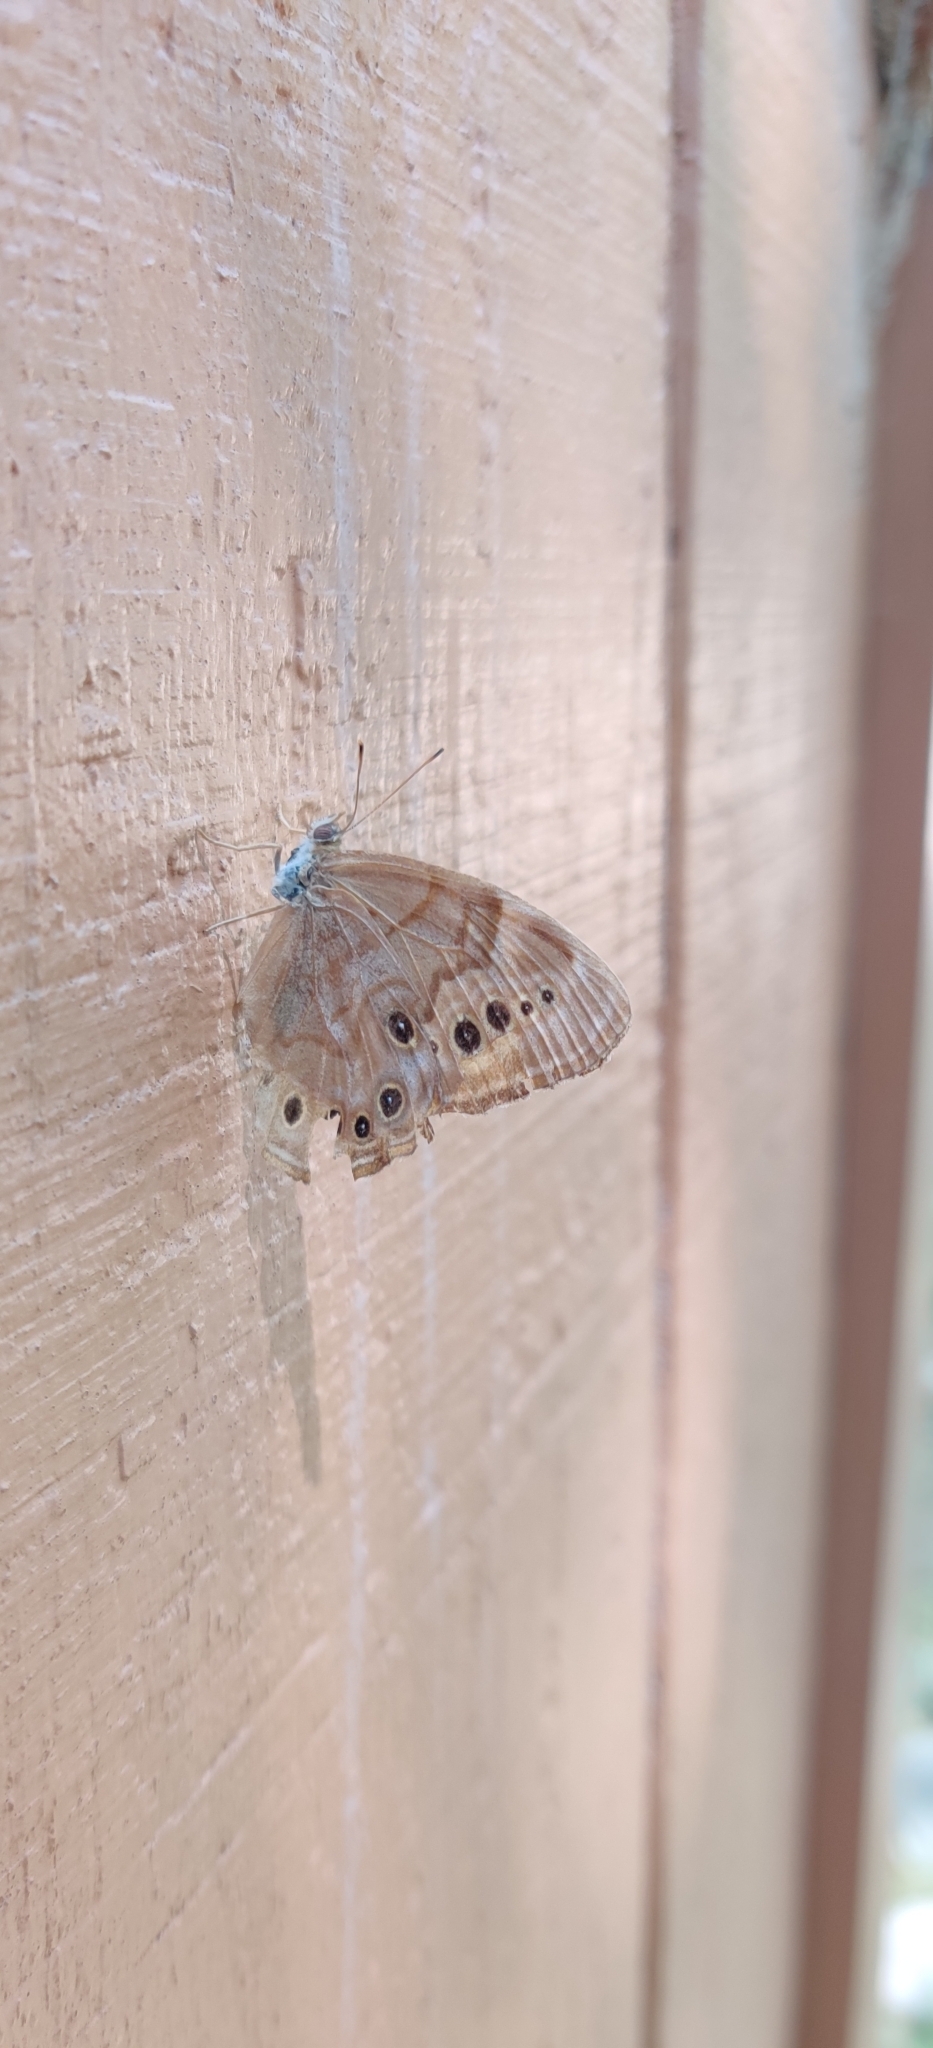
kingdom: Animalia
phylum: Arthropoda
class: Insecta
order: Lepidoptera
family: Nymphalidae
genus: Lethe
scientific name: Lethe anthedon
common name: Northern pearly-eye
